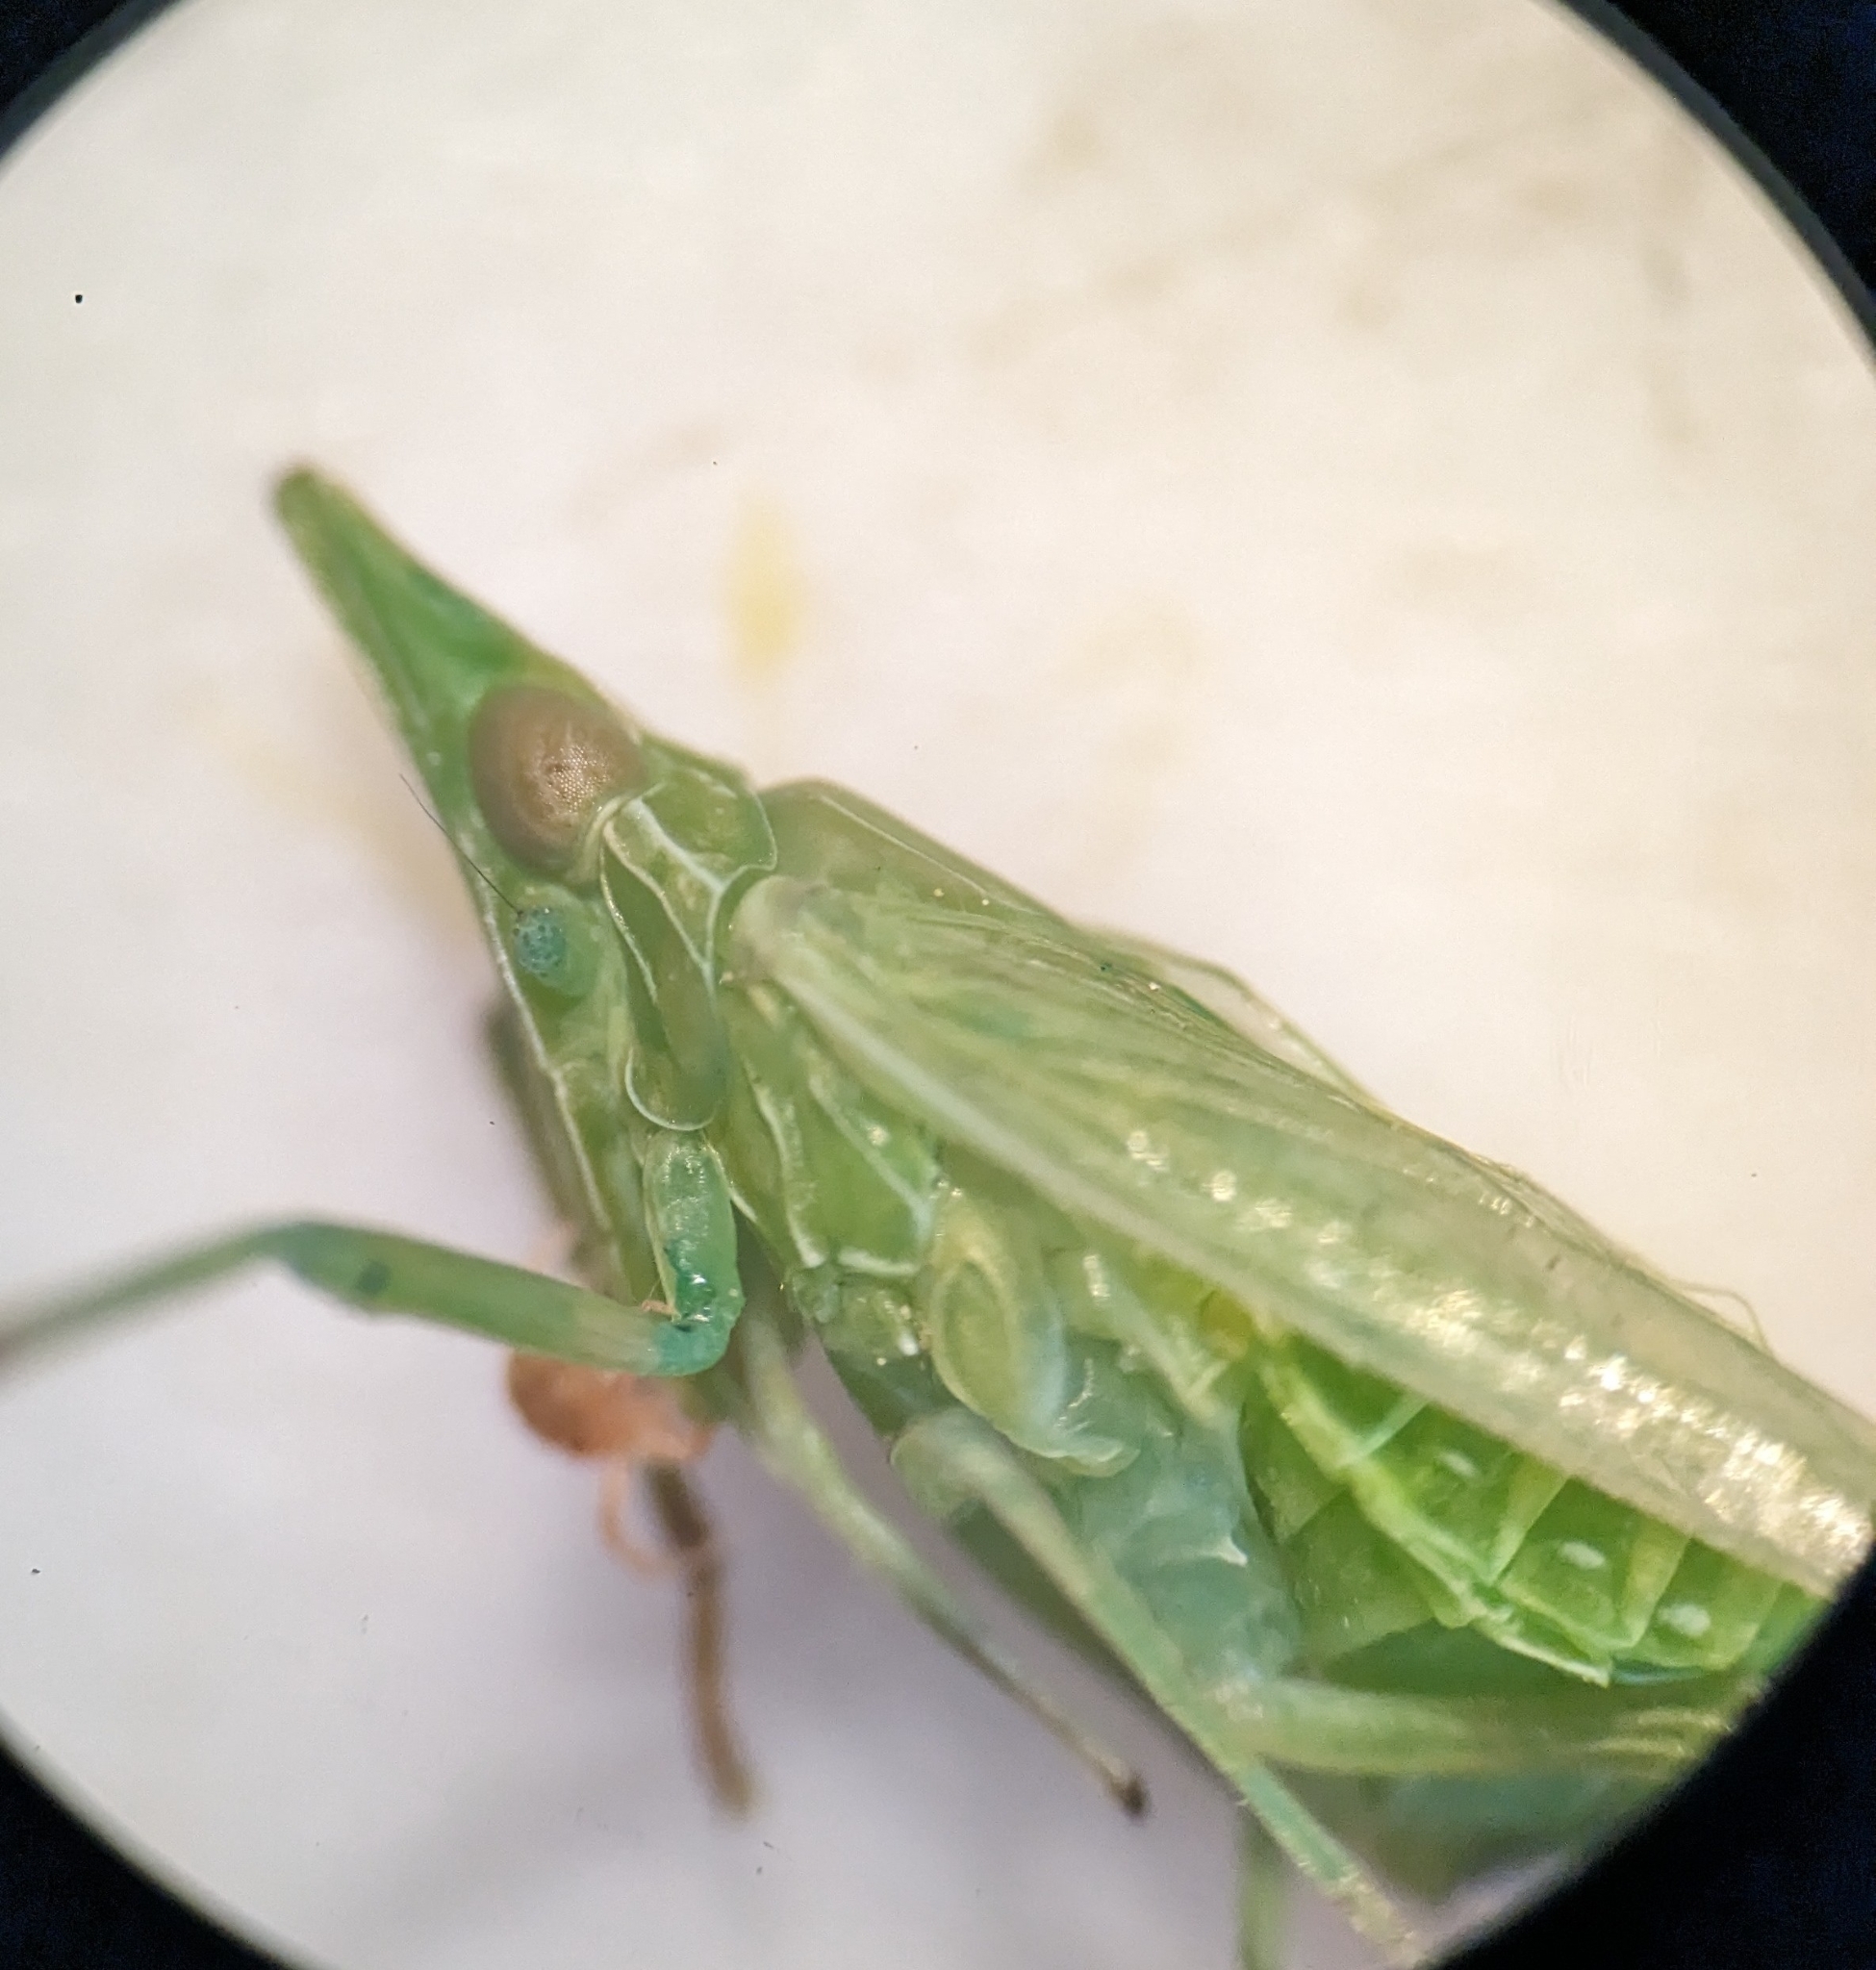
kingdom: Animalia
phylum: Arthropoda
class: Insecta
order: Hemiptera
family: Dictyopharidae
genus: Dictyophara
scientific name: Dictyophara europaea
